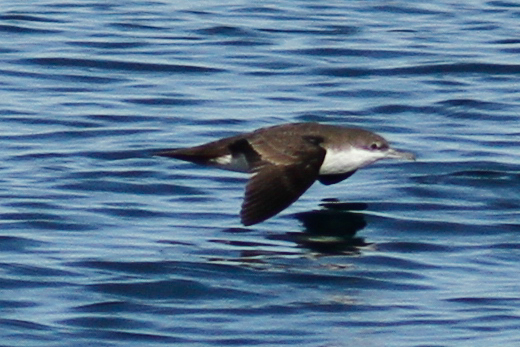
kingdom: Animalia
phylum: Chordata
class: Aves
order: Procellariiformes
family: Procellariidae
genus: Puffinus
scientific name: Puffinus subalaris
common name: Galapagos shearwater
